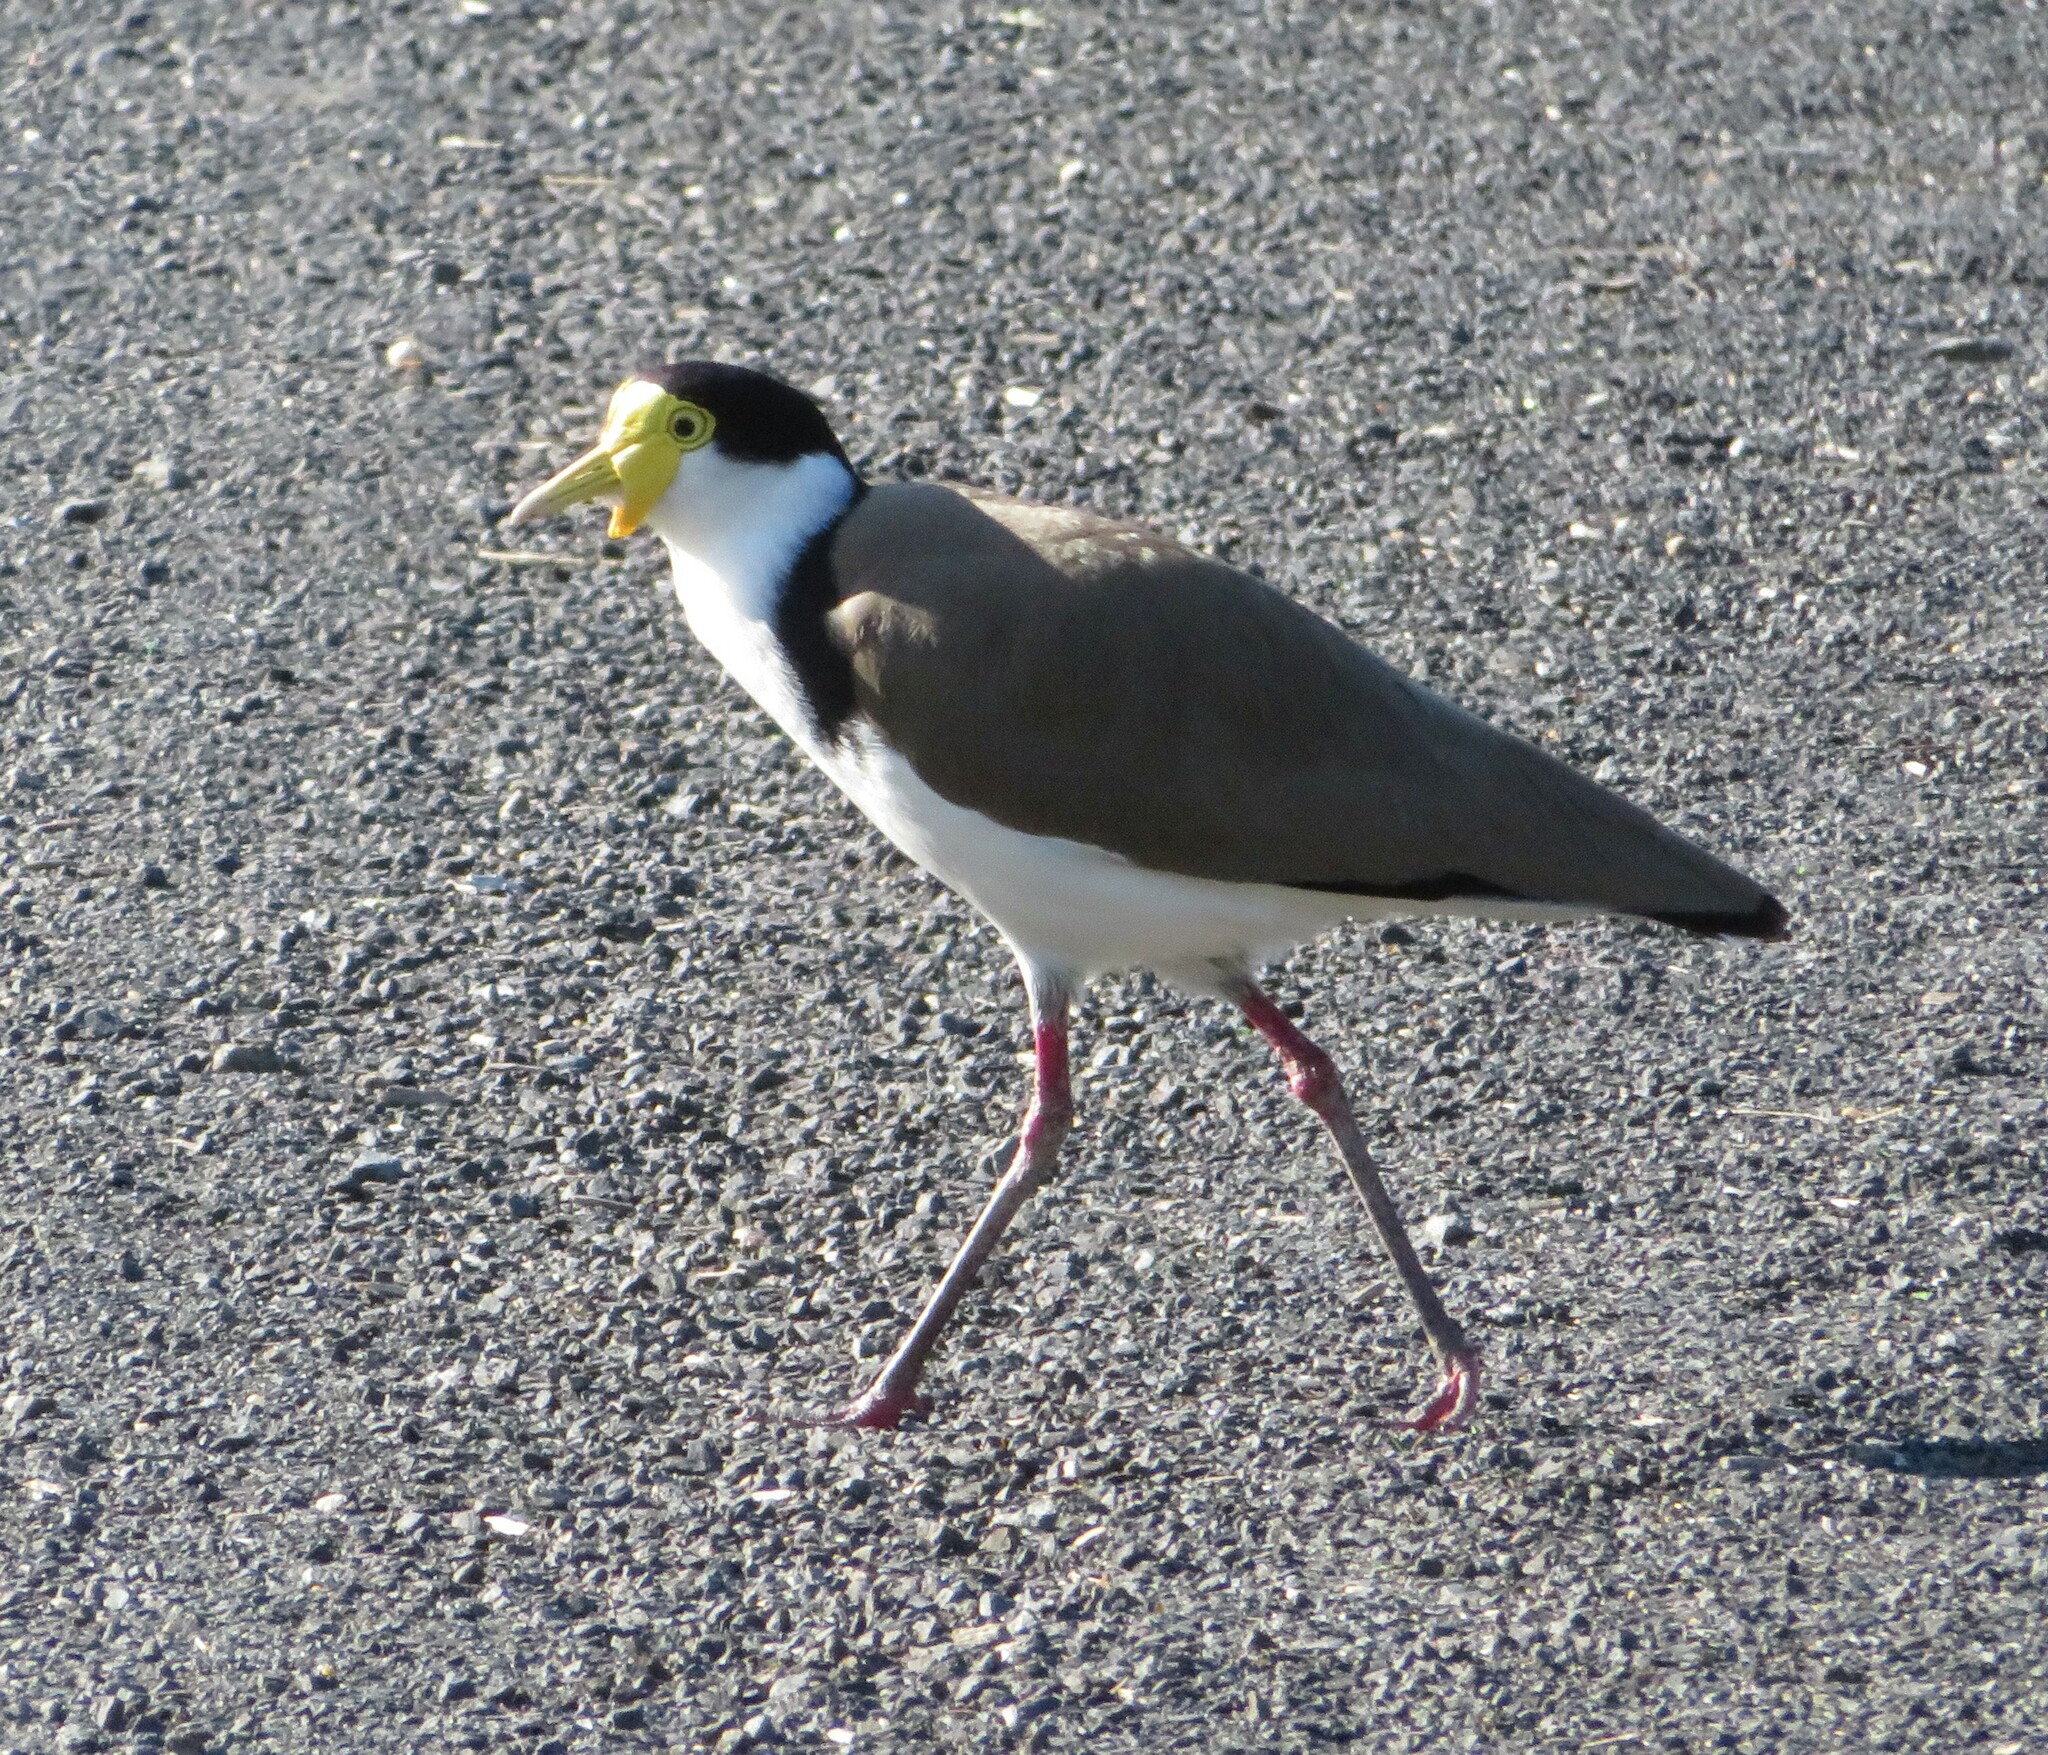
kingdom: Animalia
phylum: Chordata
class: Aves
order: Charadriiformes
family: Charadriidae
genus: Vanellus
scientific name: Vanellus miles
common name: Masked lapwing
